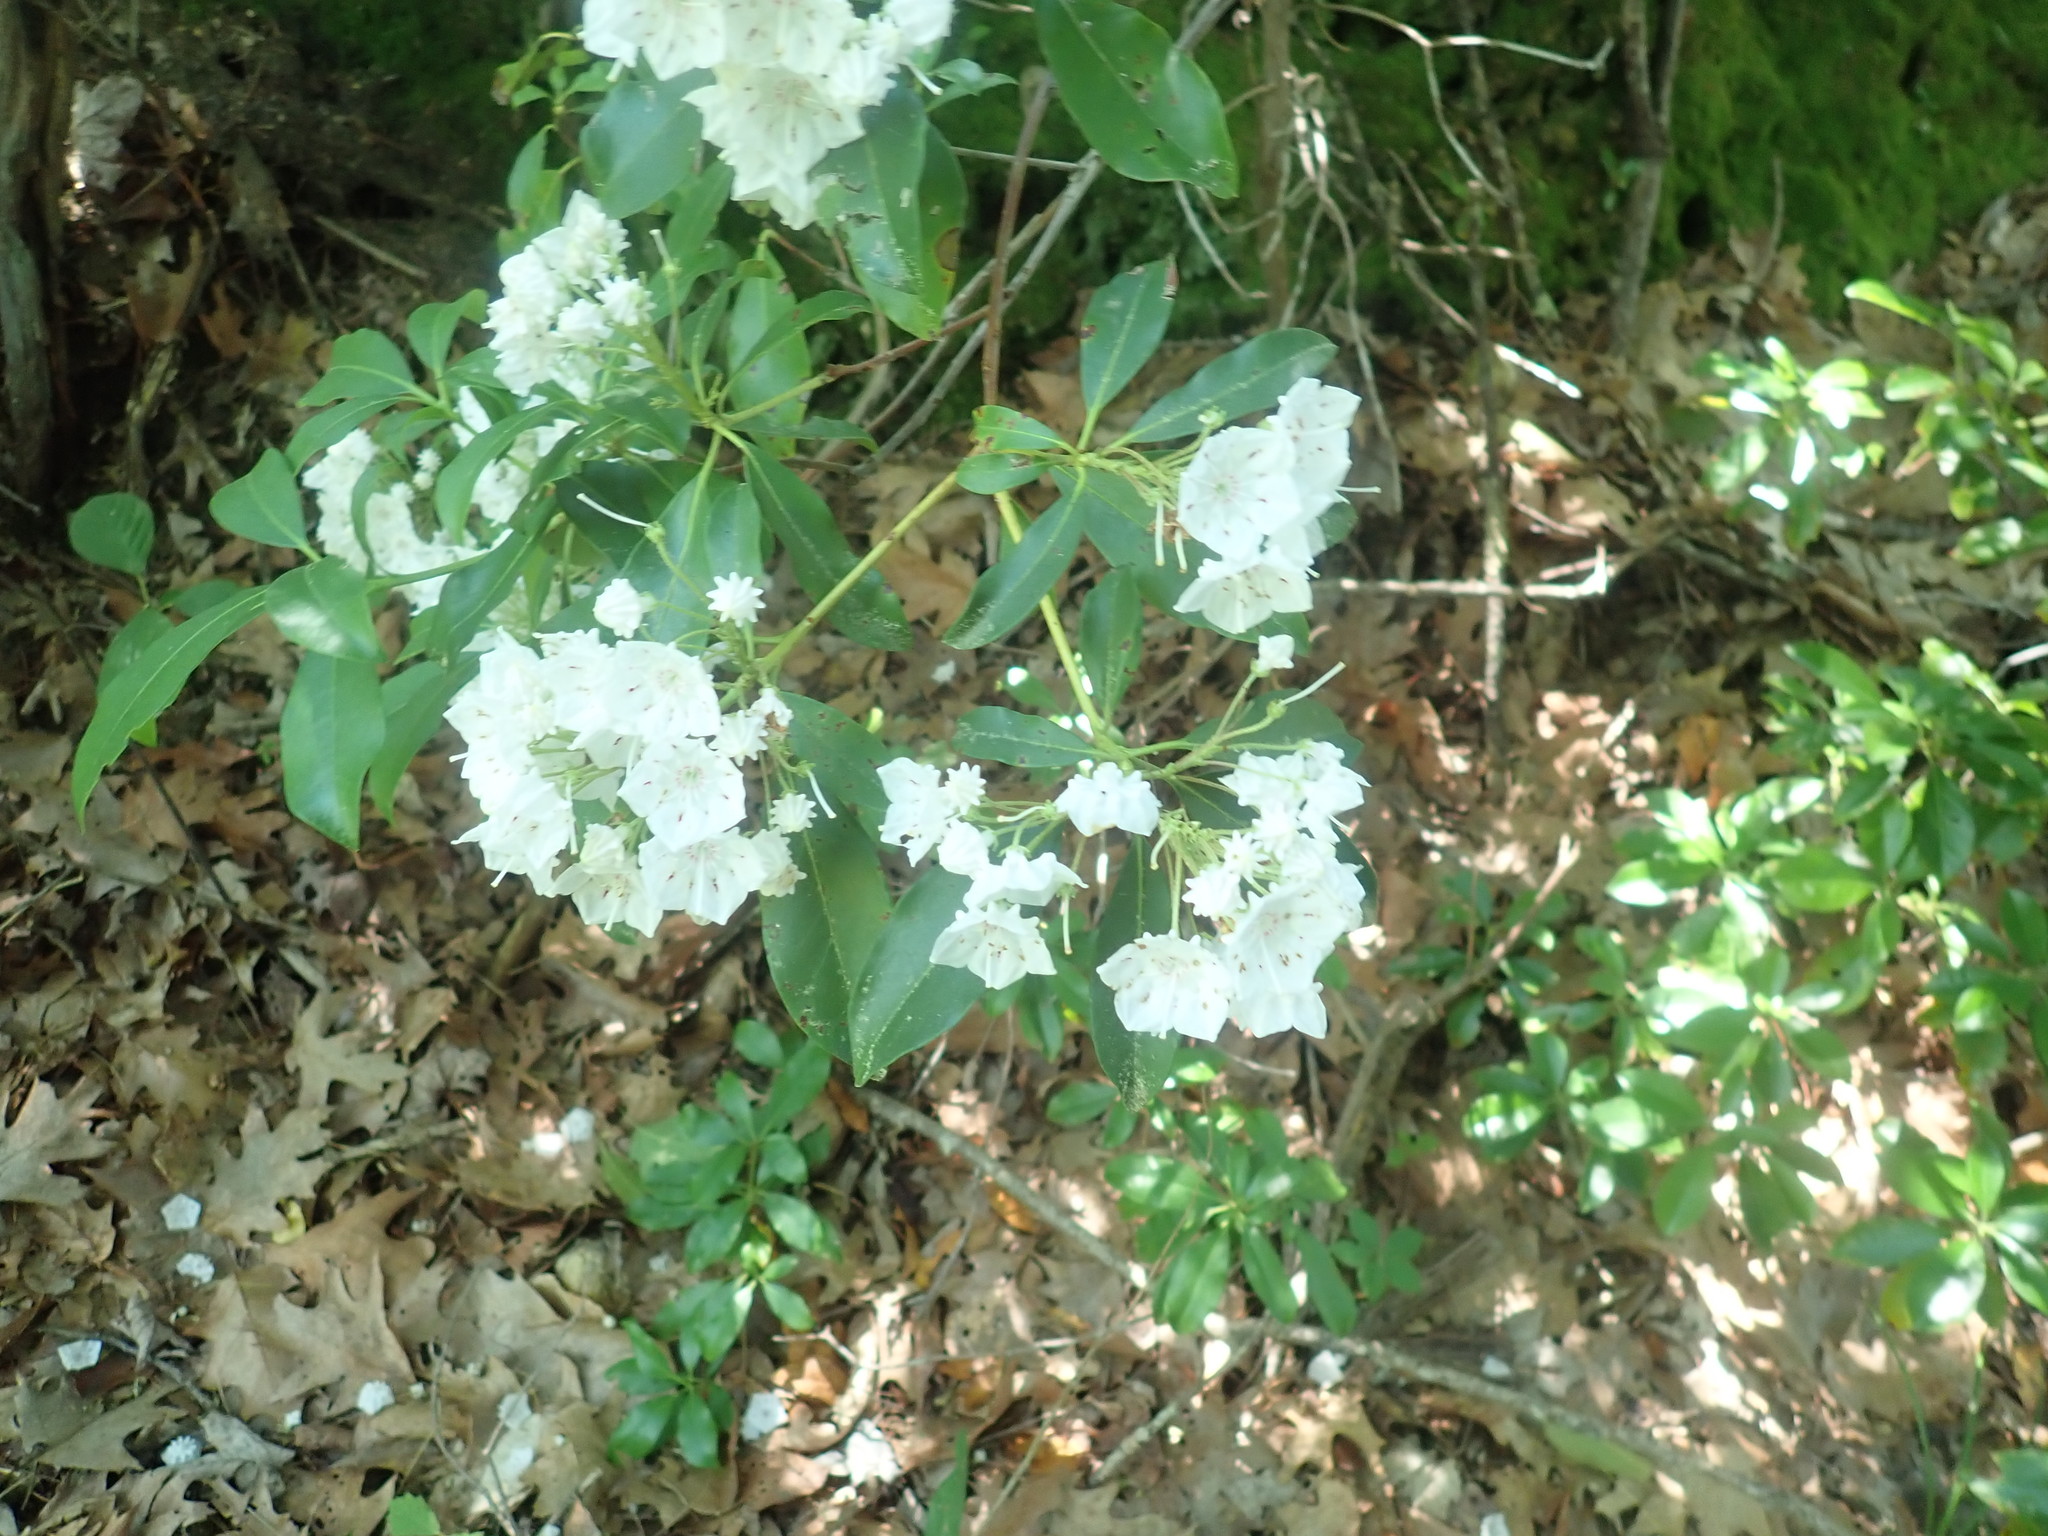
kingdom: Plantae
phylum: Tracheophyta
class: Magnoliopsida
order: Ericales
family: Ericaceae
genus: Kalmia
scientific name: Kalmia latifolia
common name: Mountain-laurel
